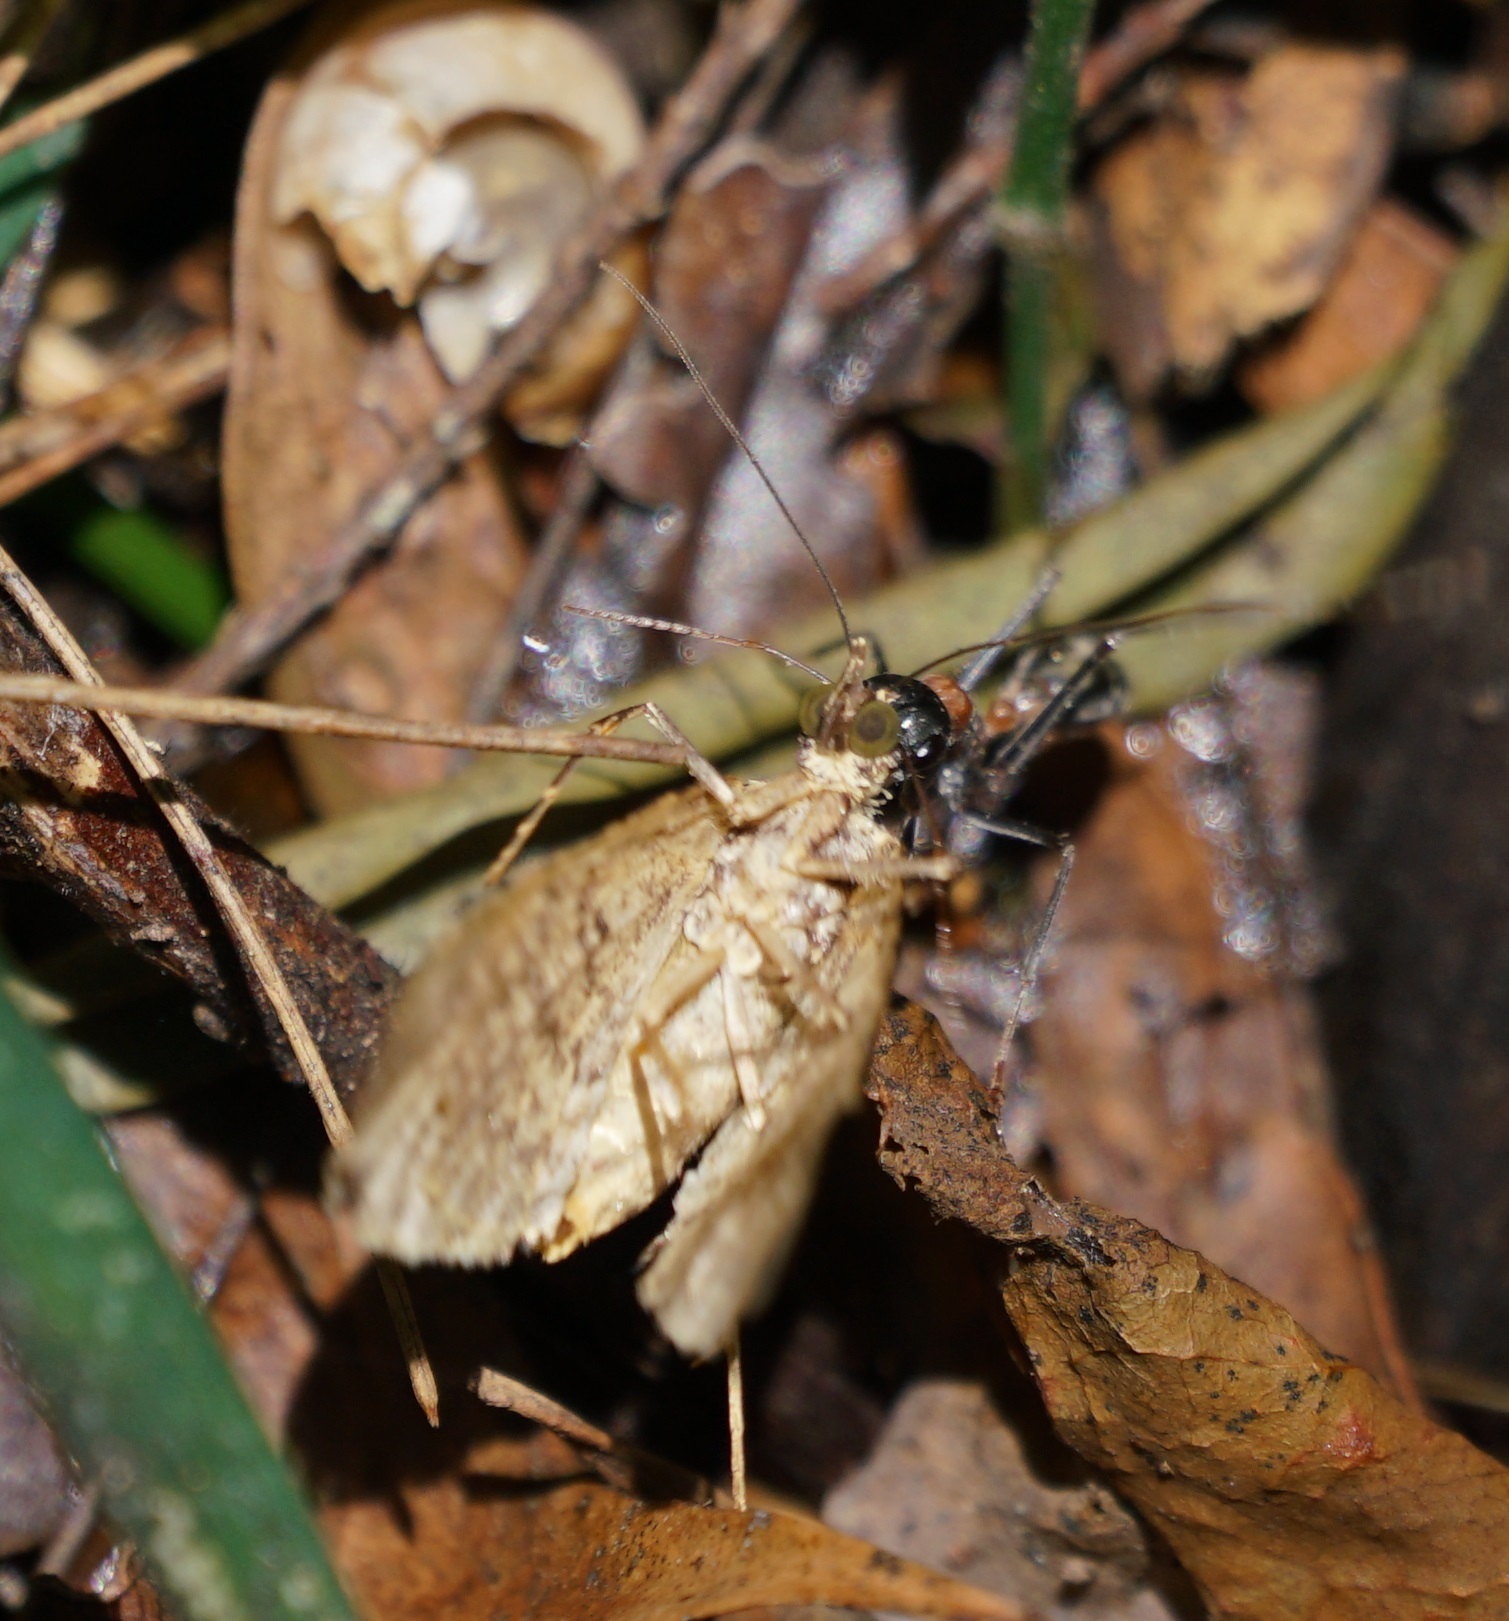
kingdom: Animalia
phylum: Arthropoda
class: Insecta
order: Hymenoptera
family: Formicidae
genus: Myrmecia
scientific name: Myrmecia nigrocincta
